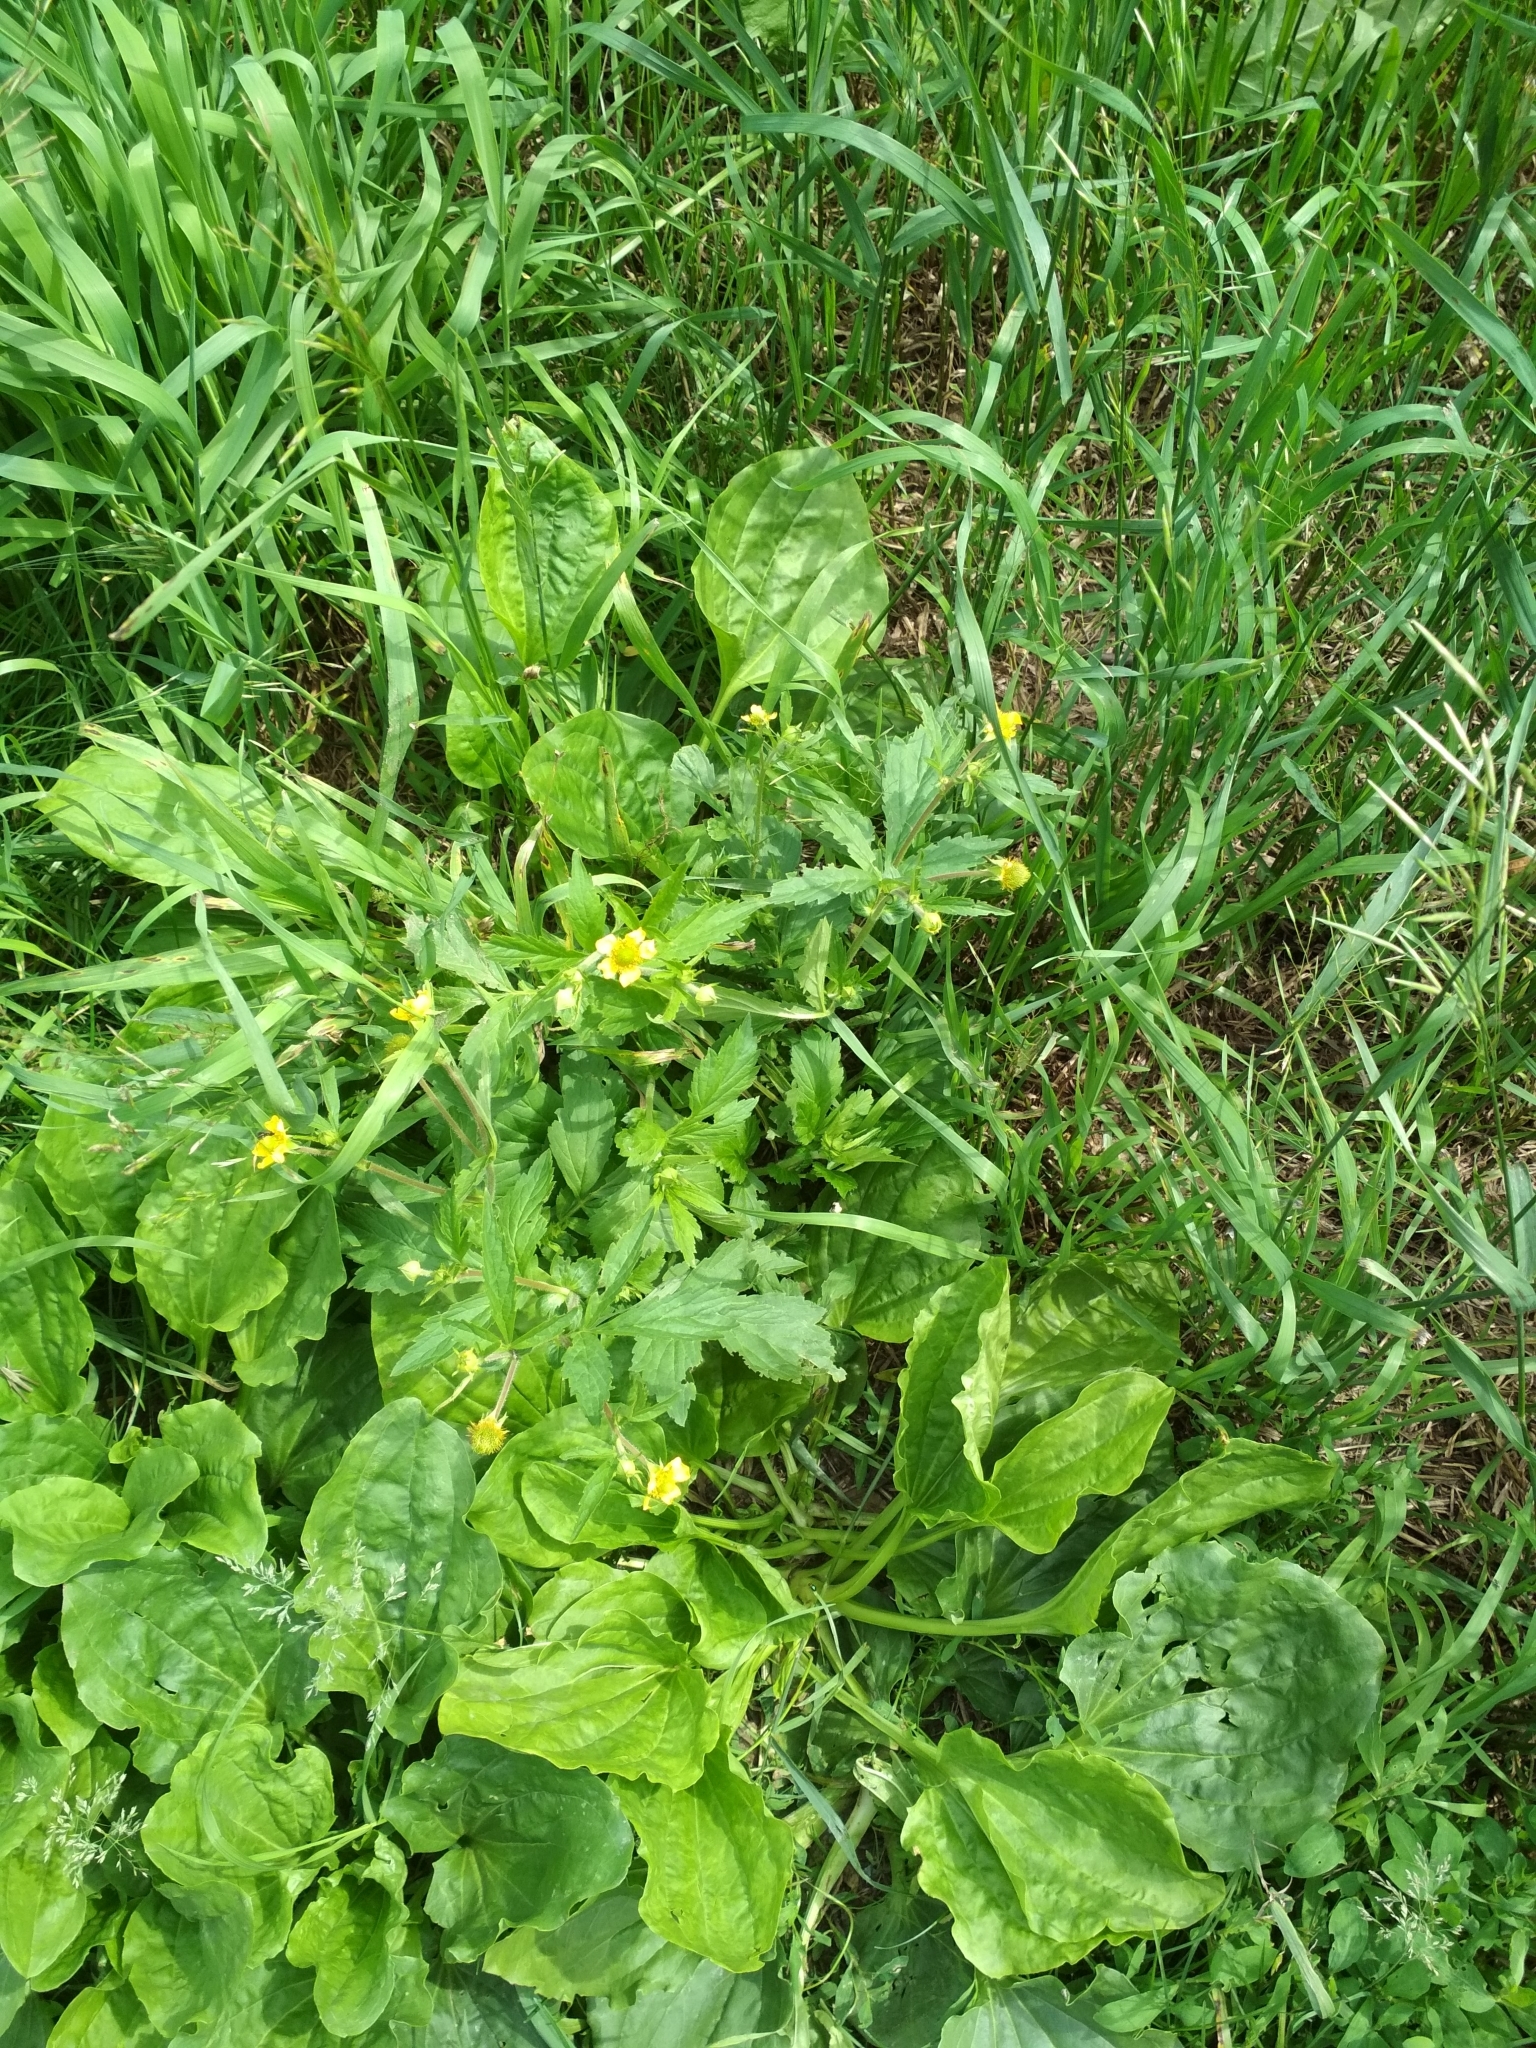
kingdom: Plantae
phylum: Tracheophyta
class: Magnoliopsida
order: Rosales
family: Rosaceae
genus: Geum
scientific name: Geum aleppicum
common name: Yellow avens
